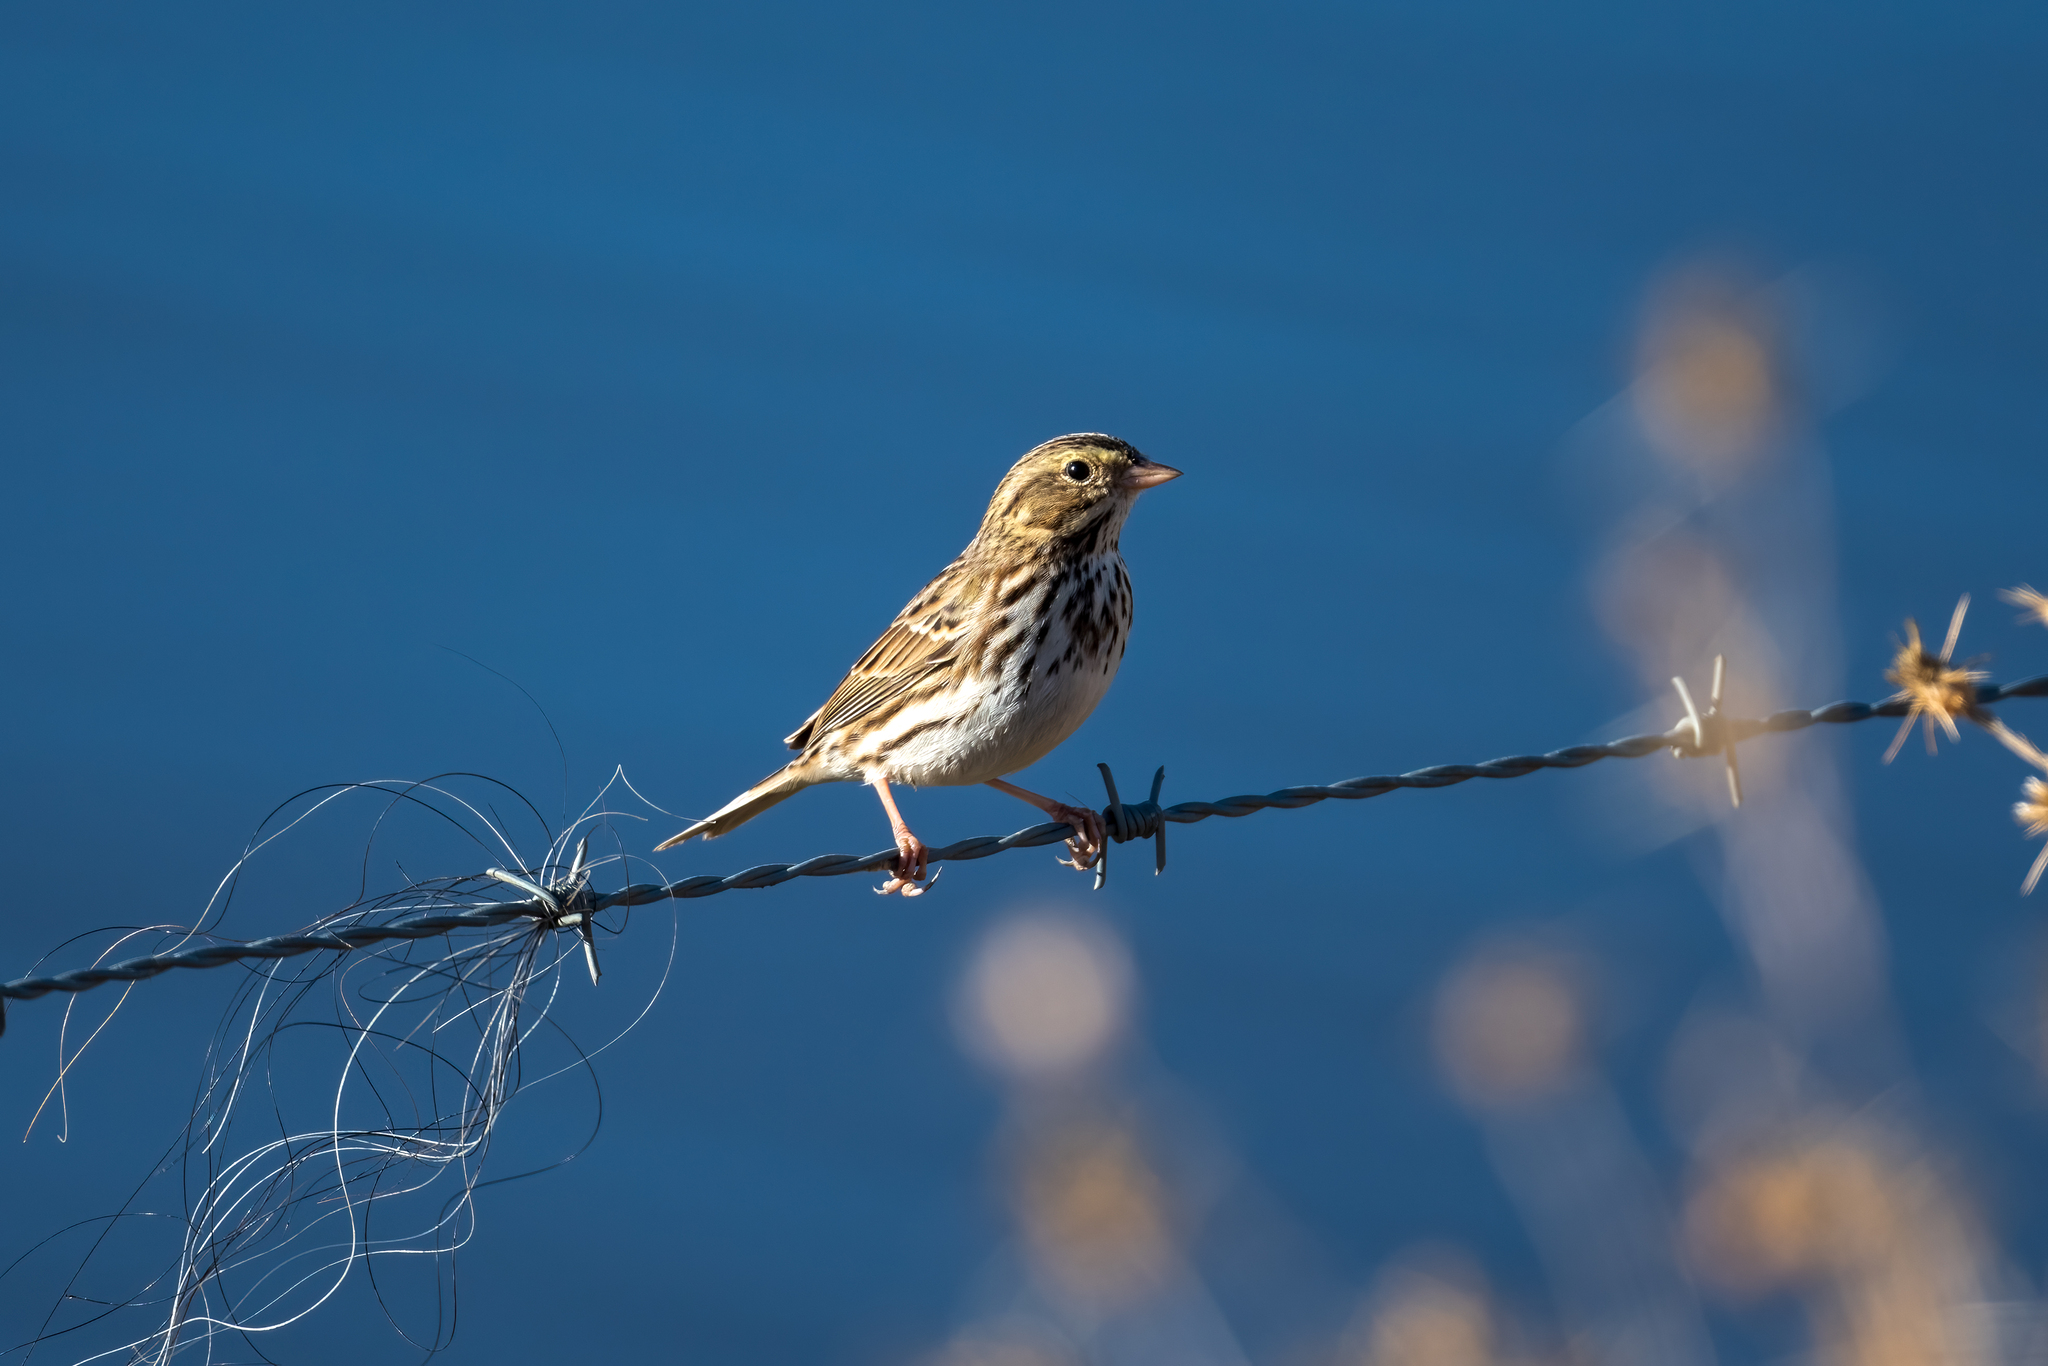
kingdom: Animalia
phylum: Chordata
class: Aves
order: Passeriformes
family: Passerellidae
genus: Passerculus
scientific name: Passerculus sandwichensis
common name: Savannah sparrow
